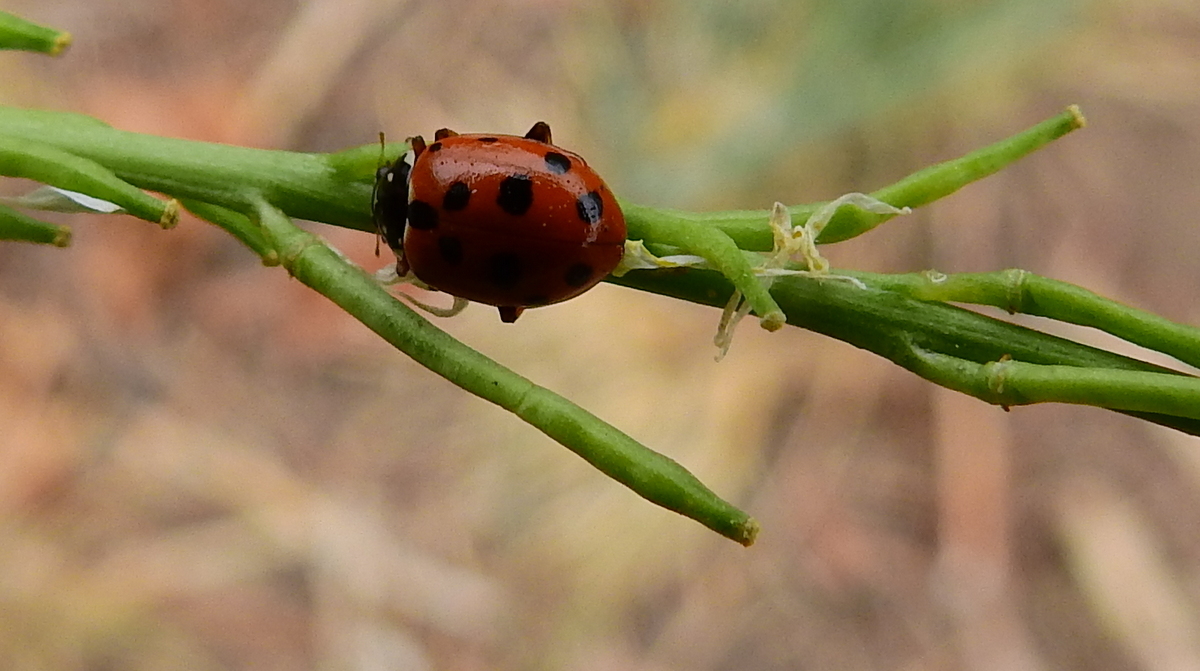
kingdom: Animalia
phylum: Arthropoda
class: Insecta
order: Coleoptera
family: Coccinellidae
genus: Hippodamia
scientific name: Hippodamia variegata
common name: Ladybird beetle
